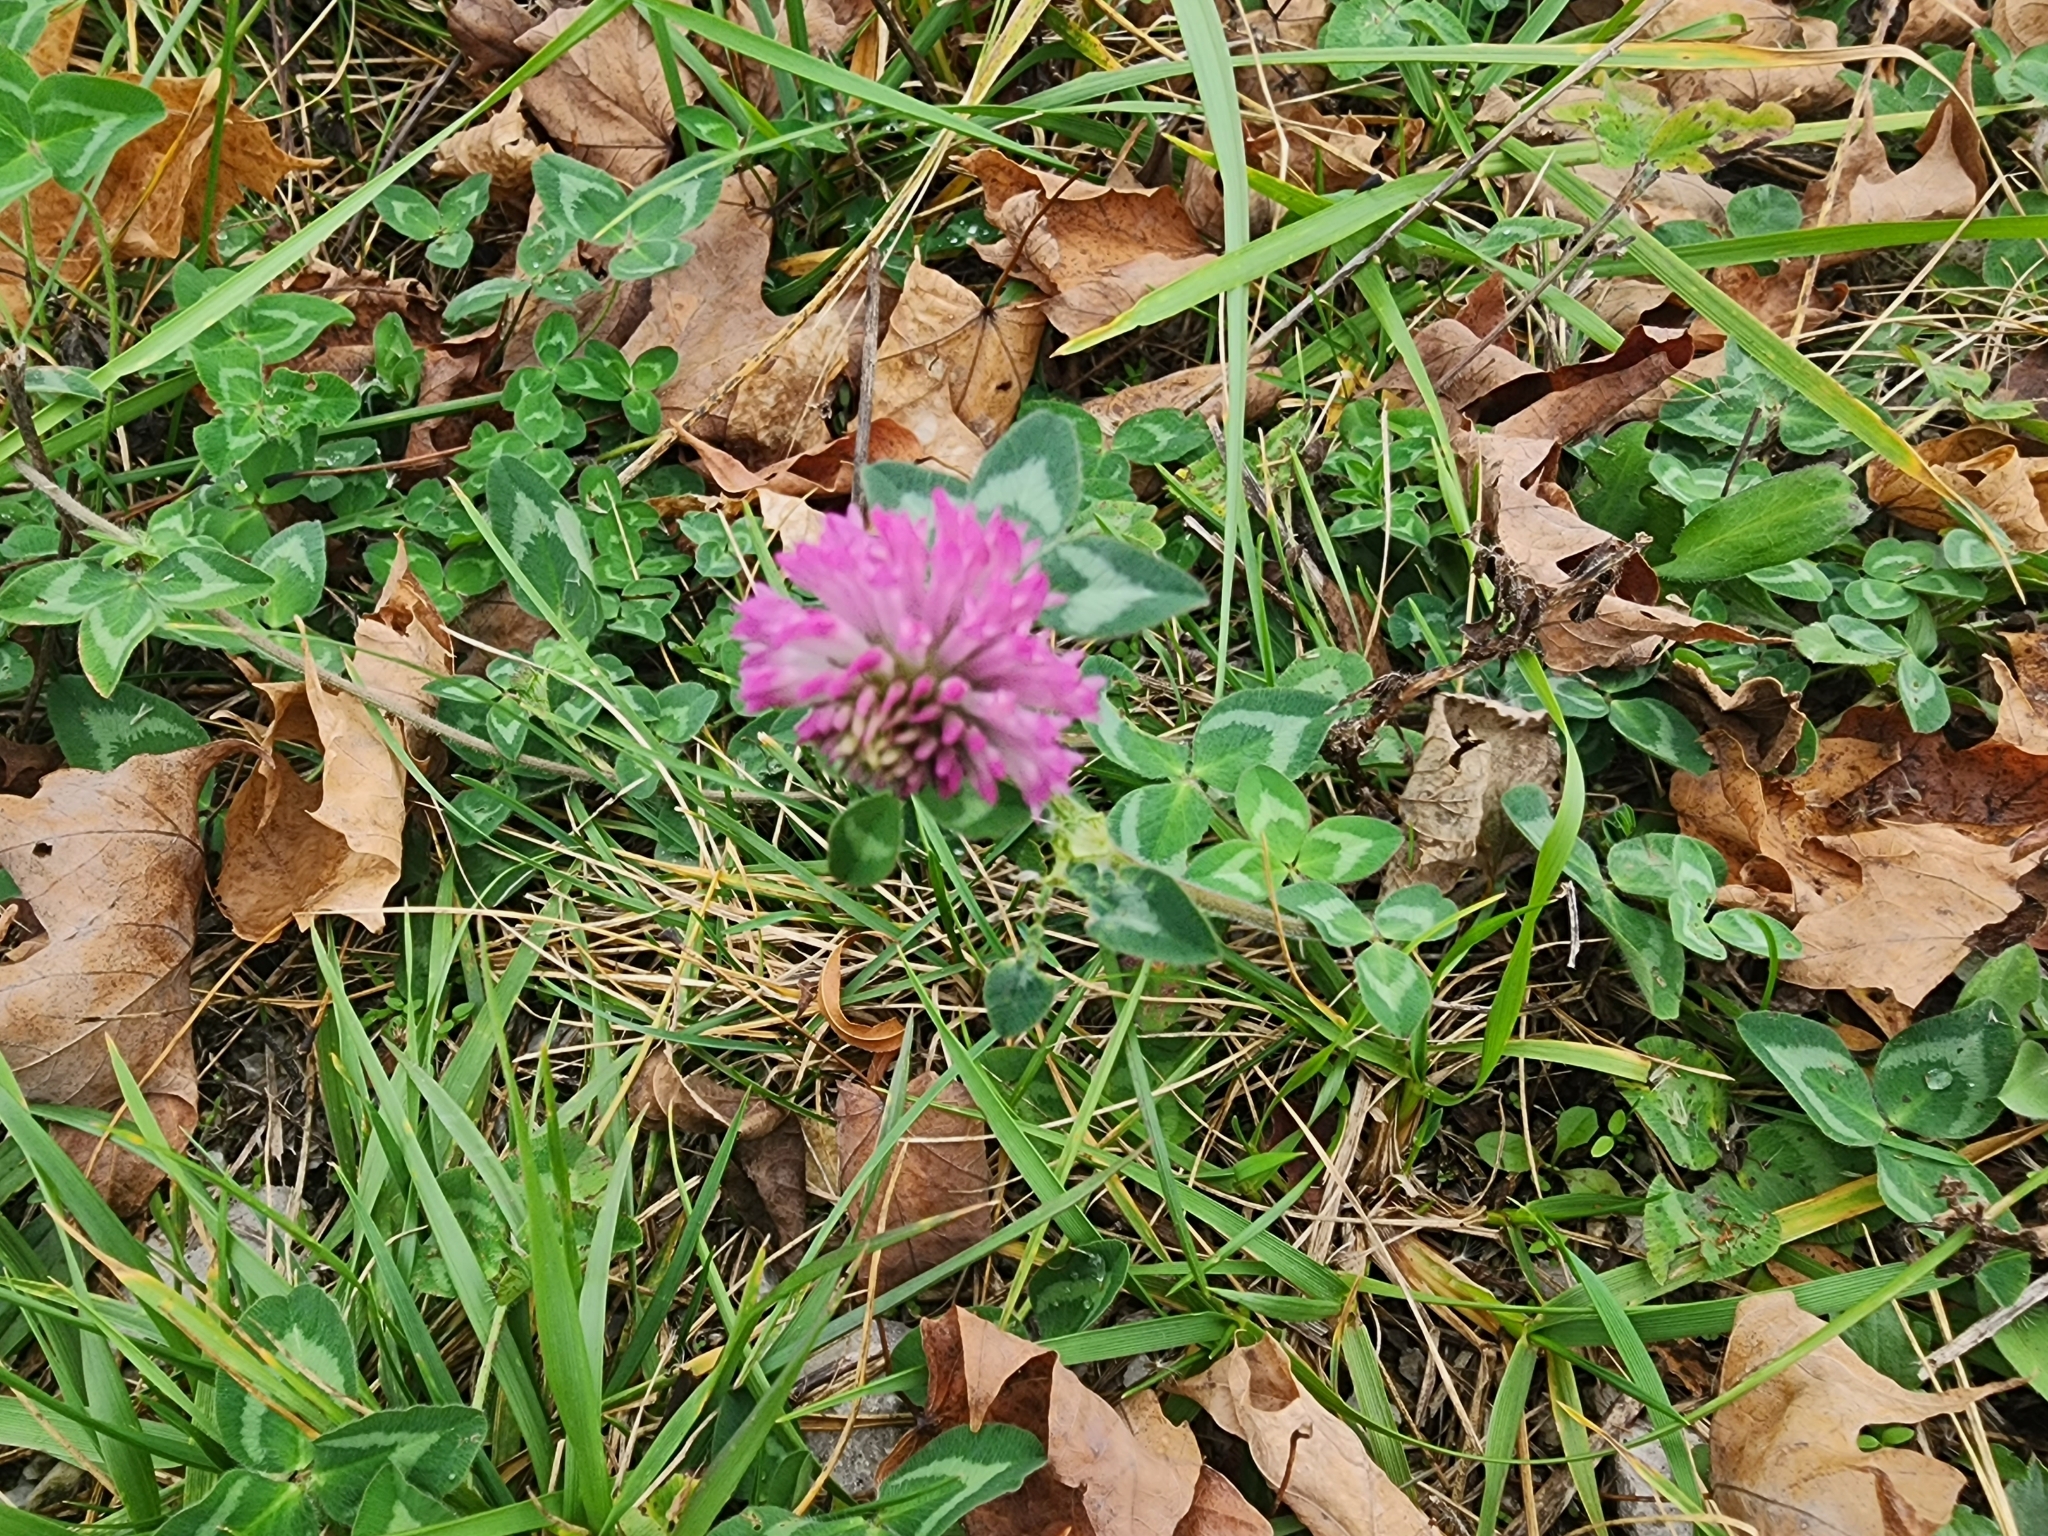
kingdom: Plantae
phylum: Tracheophyta
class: Magnoliopsida
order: Fabales
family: Fabaceae
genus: Trifolium
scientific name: Trifolium pratense
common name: Red clover
